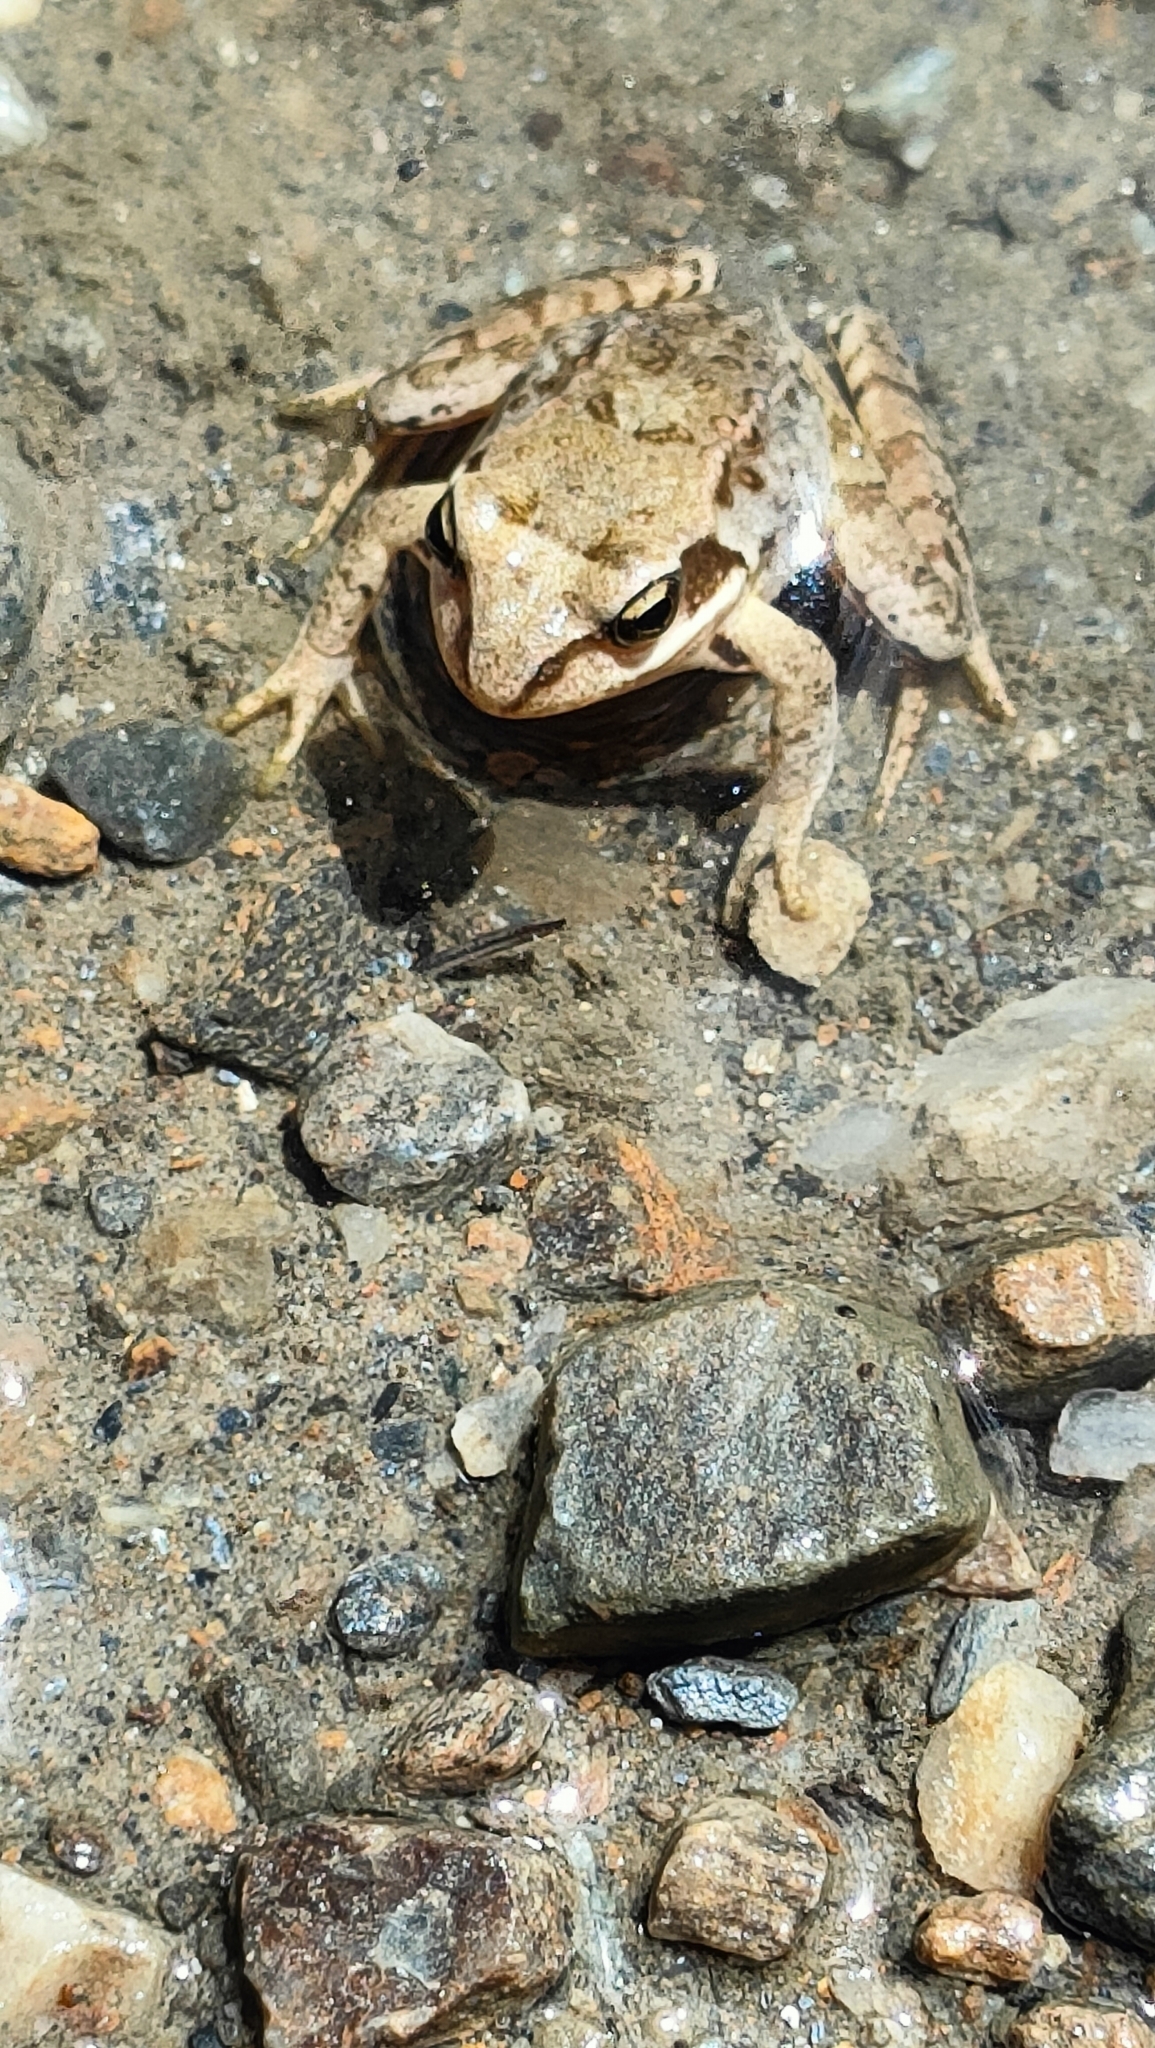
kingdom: Animalia
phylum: Chordata
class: Amphibia
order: Anura
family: Ranidae
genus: Rana
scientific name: Rana temporaria
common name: Common frog
